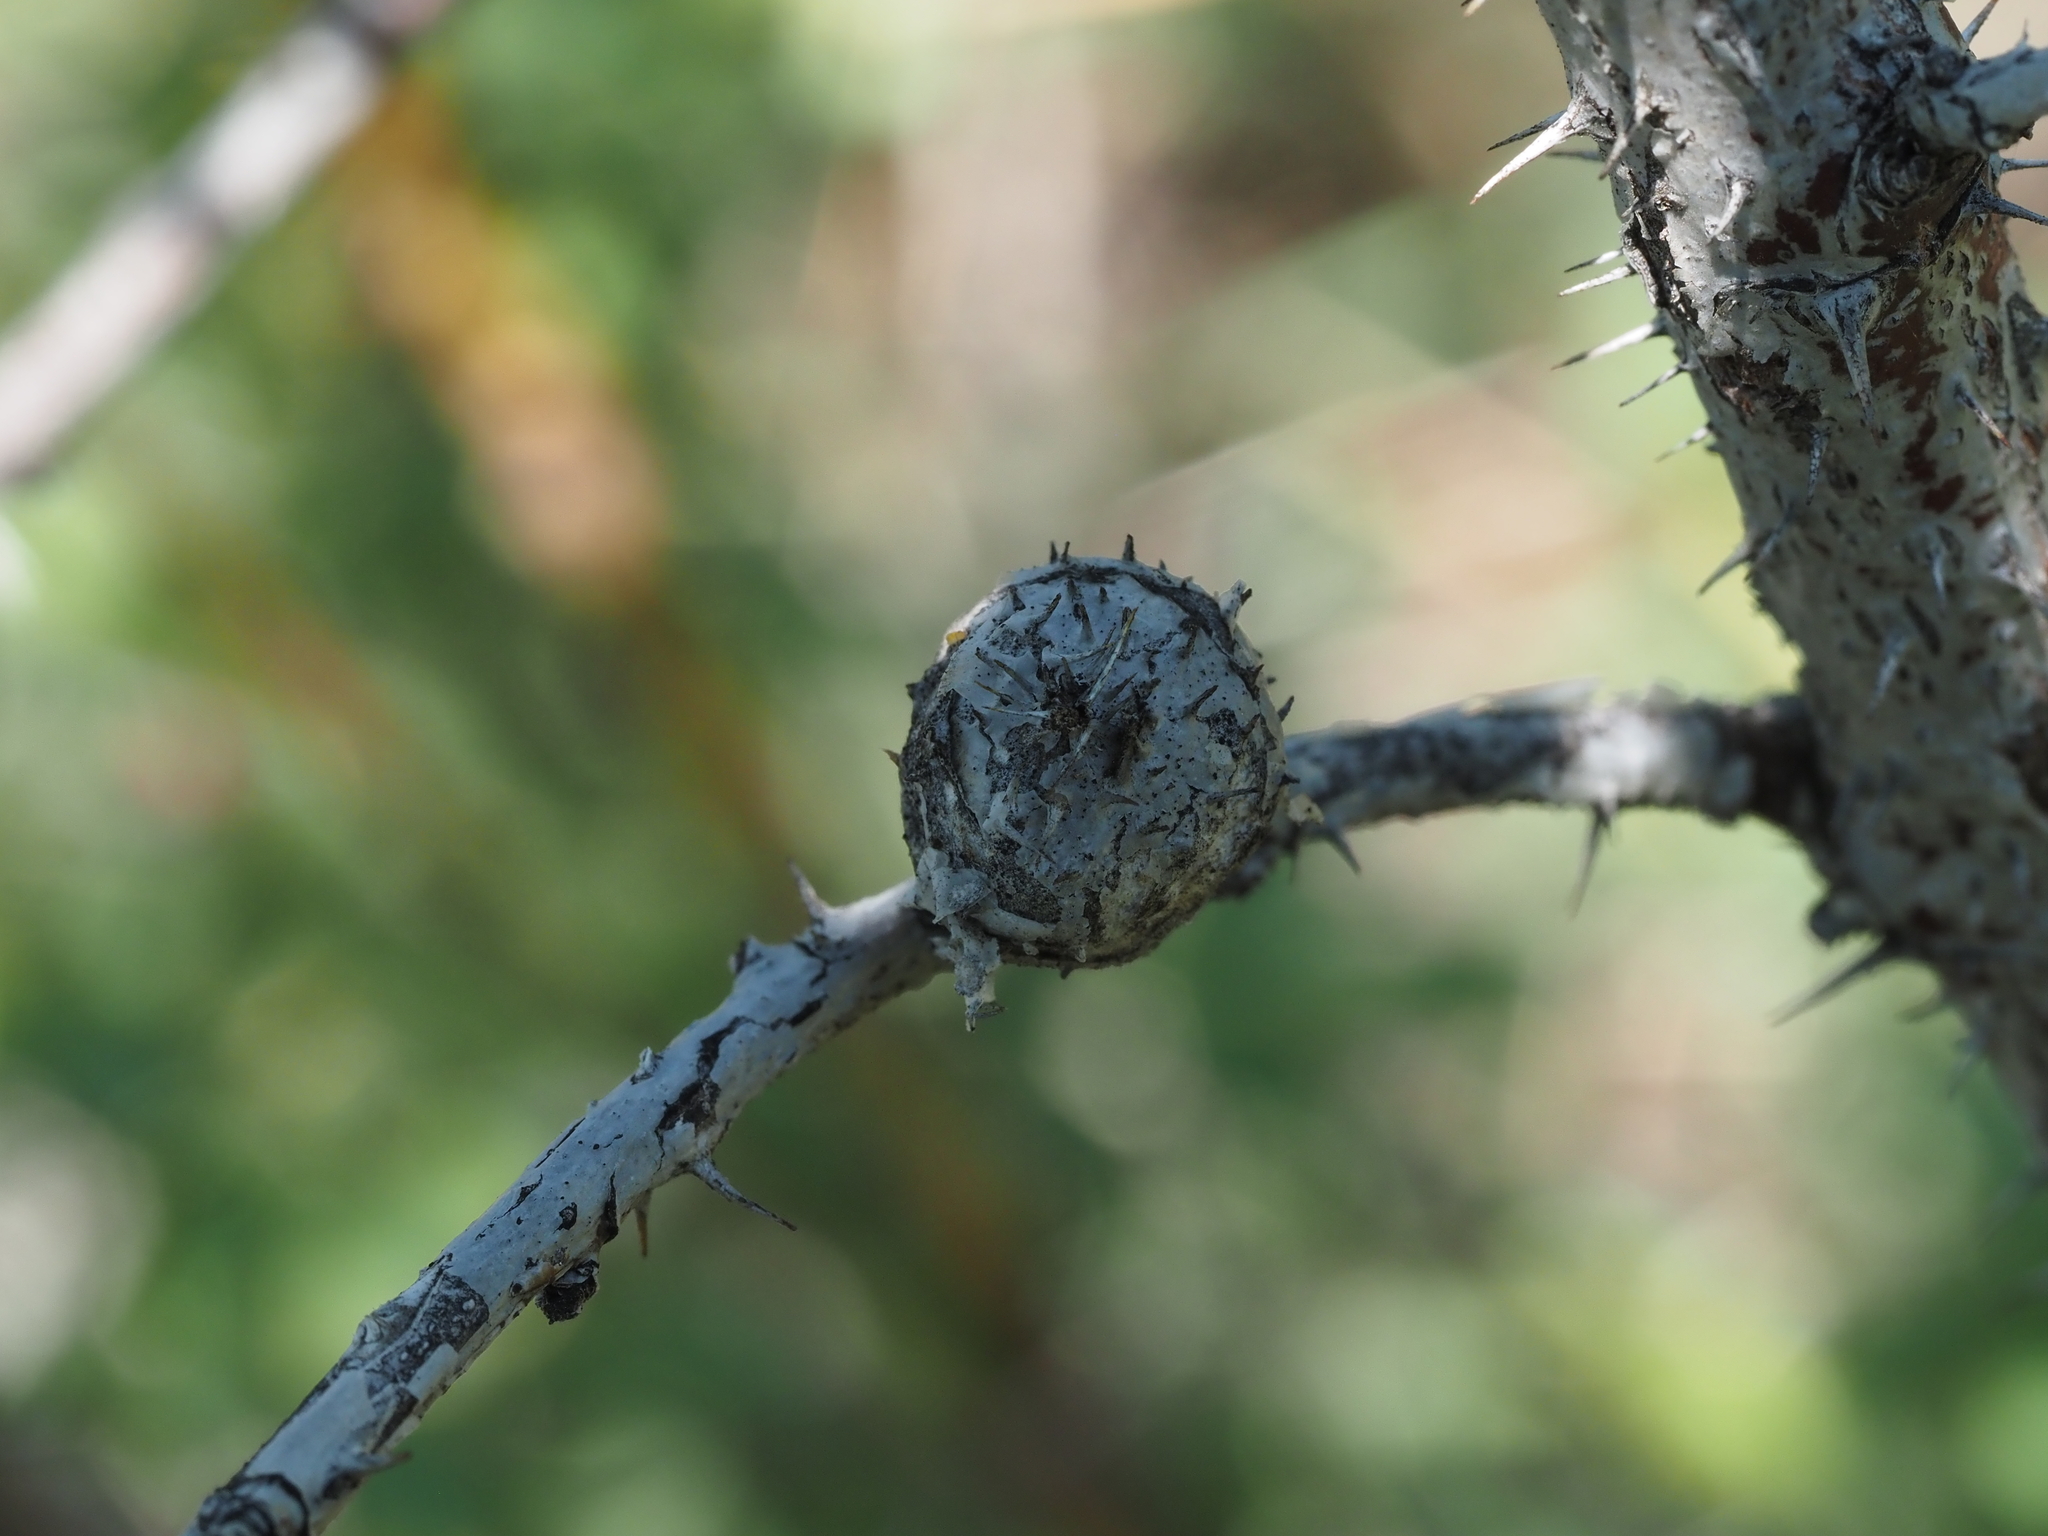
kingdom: Animalia
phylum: Arthropoda
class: Insecta
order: Hymenoptera
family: Cynipidae
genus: Diplolepis
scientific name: Diplolepis spinosa
